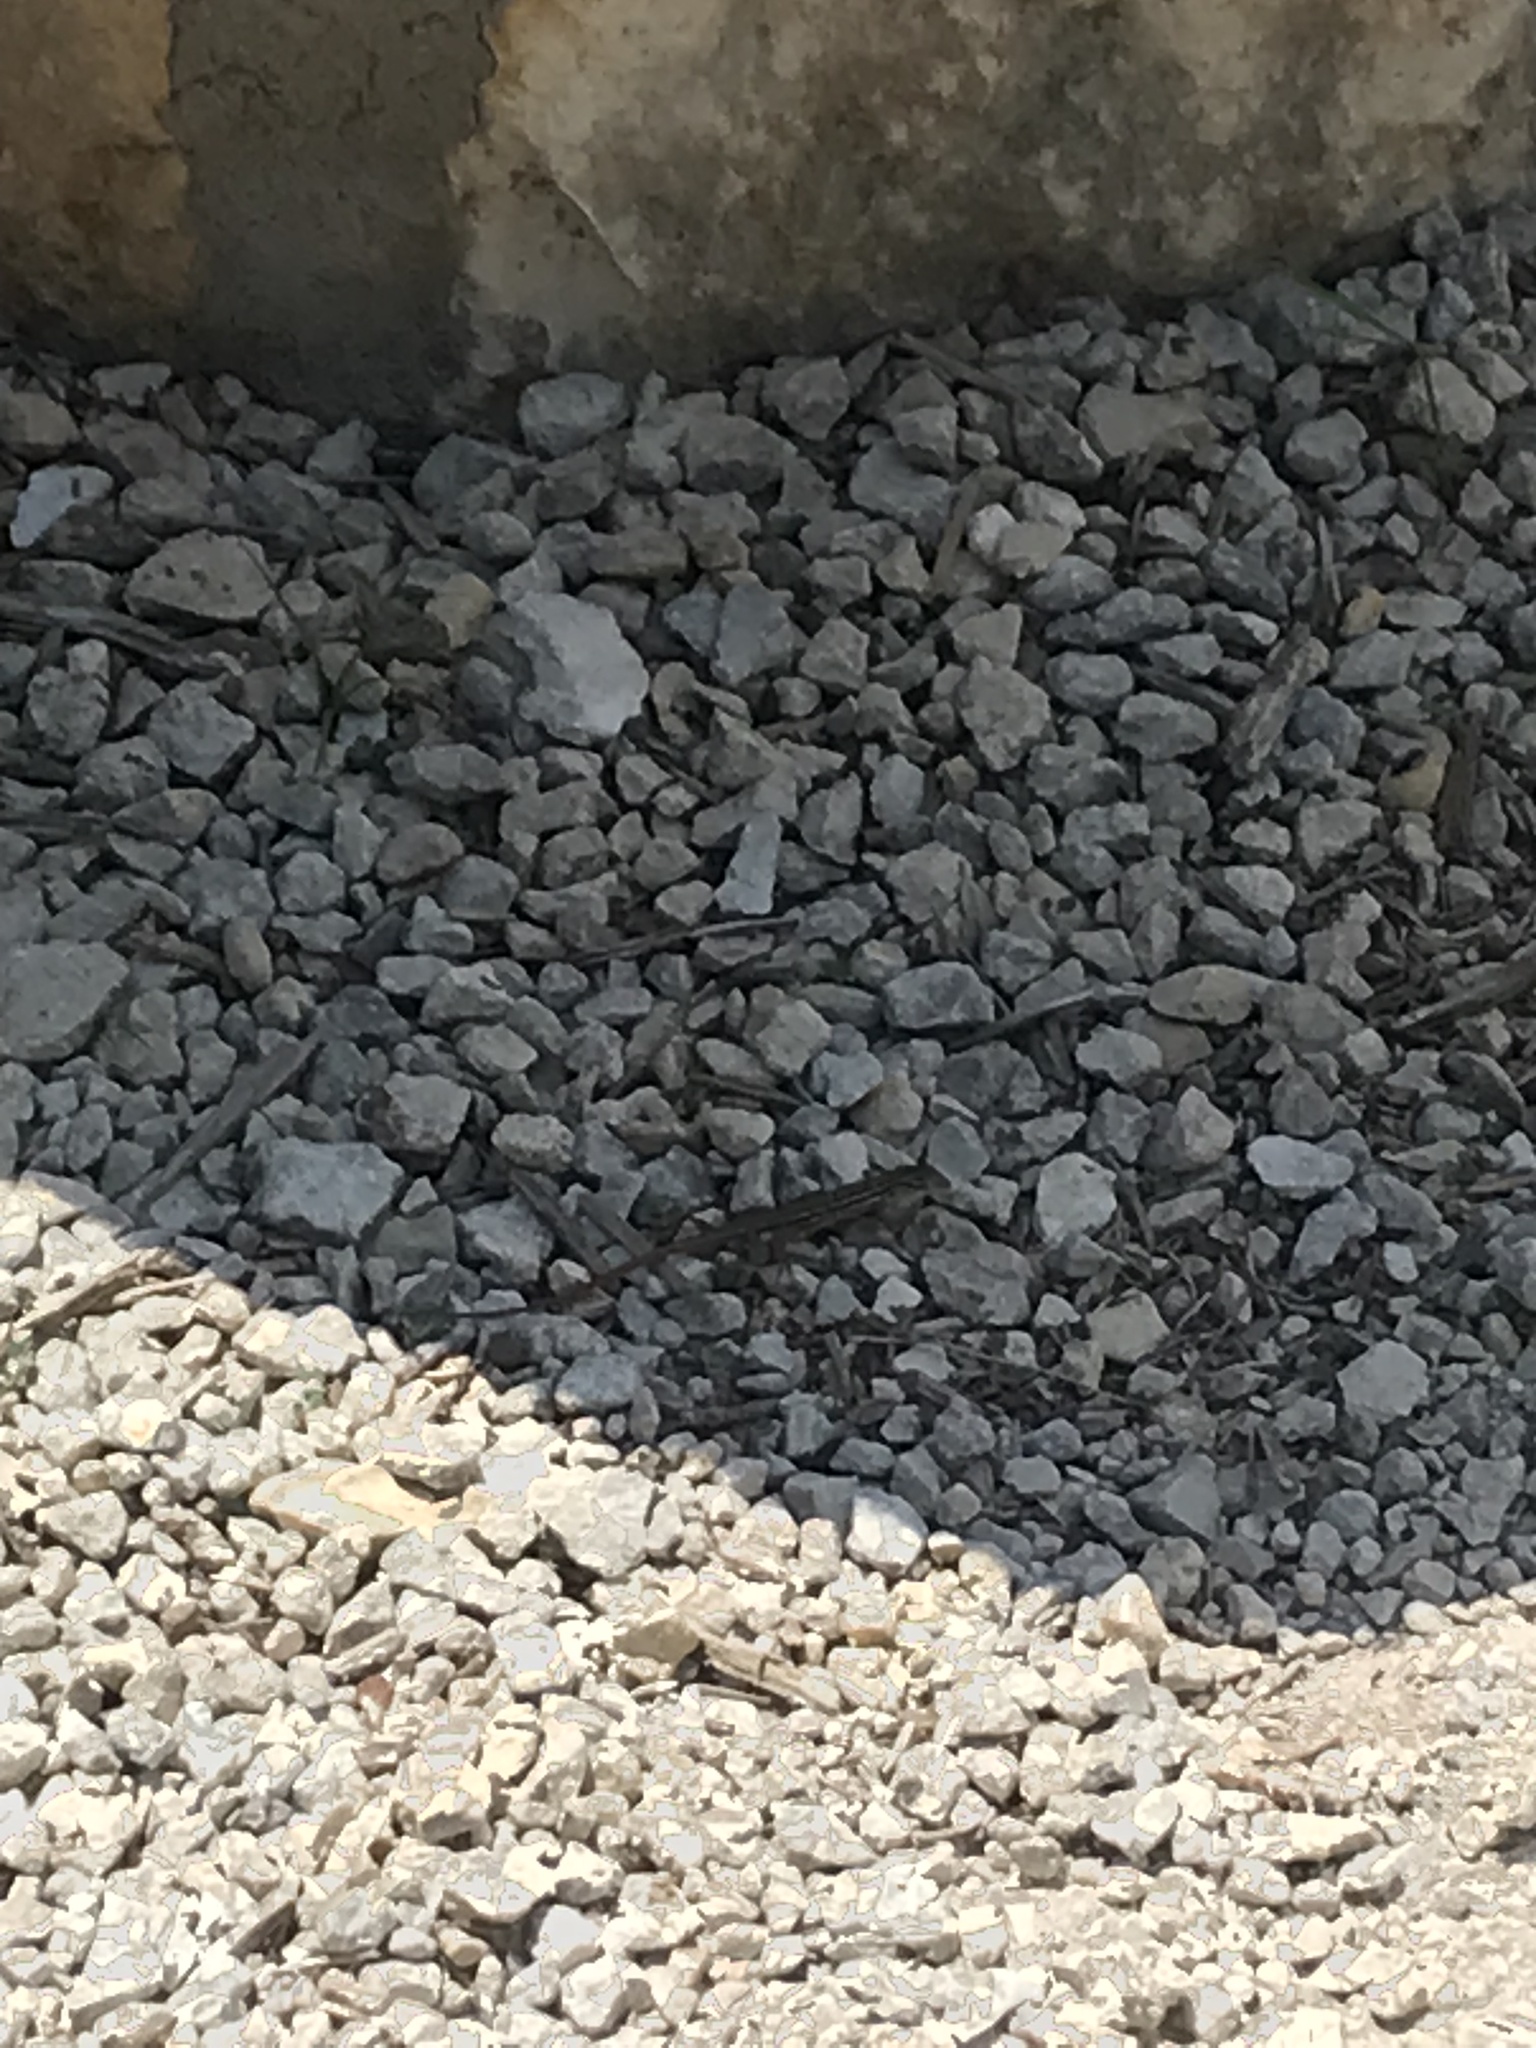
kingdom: Animalia
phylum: Chordata
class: Squamata
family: Teiidae
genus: Aspidoscelis
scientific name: Aspidoscelis gularis
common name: Eastern spotted whiptail
